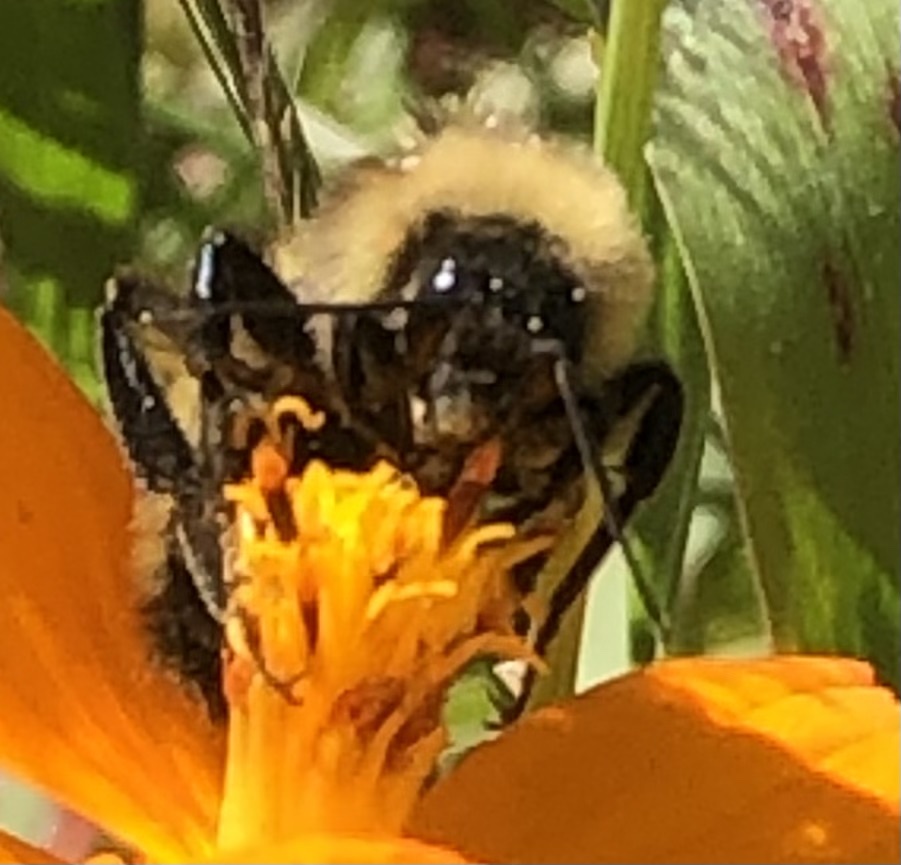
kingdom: Animalia
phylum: Arthropoda
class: Insecta
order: Hymenoptera
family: Apidae
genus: Bombus
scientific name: Bombus pensylvanicus
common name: Bumble bee
